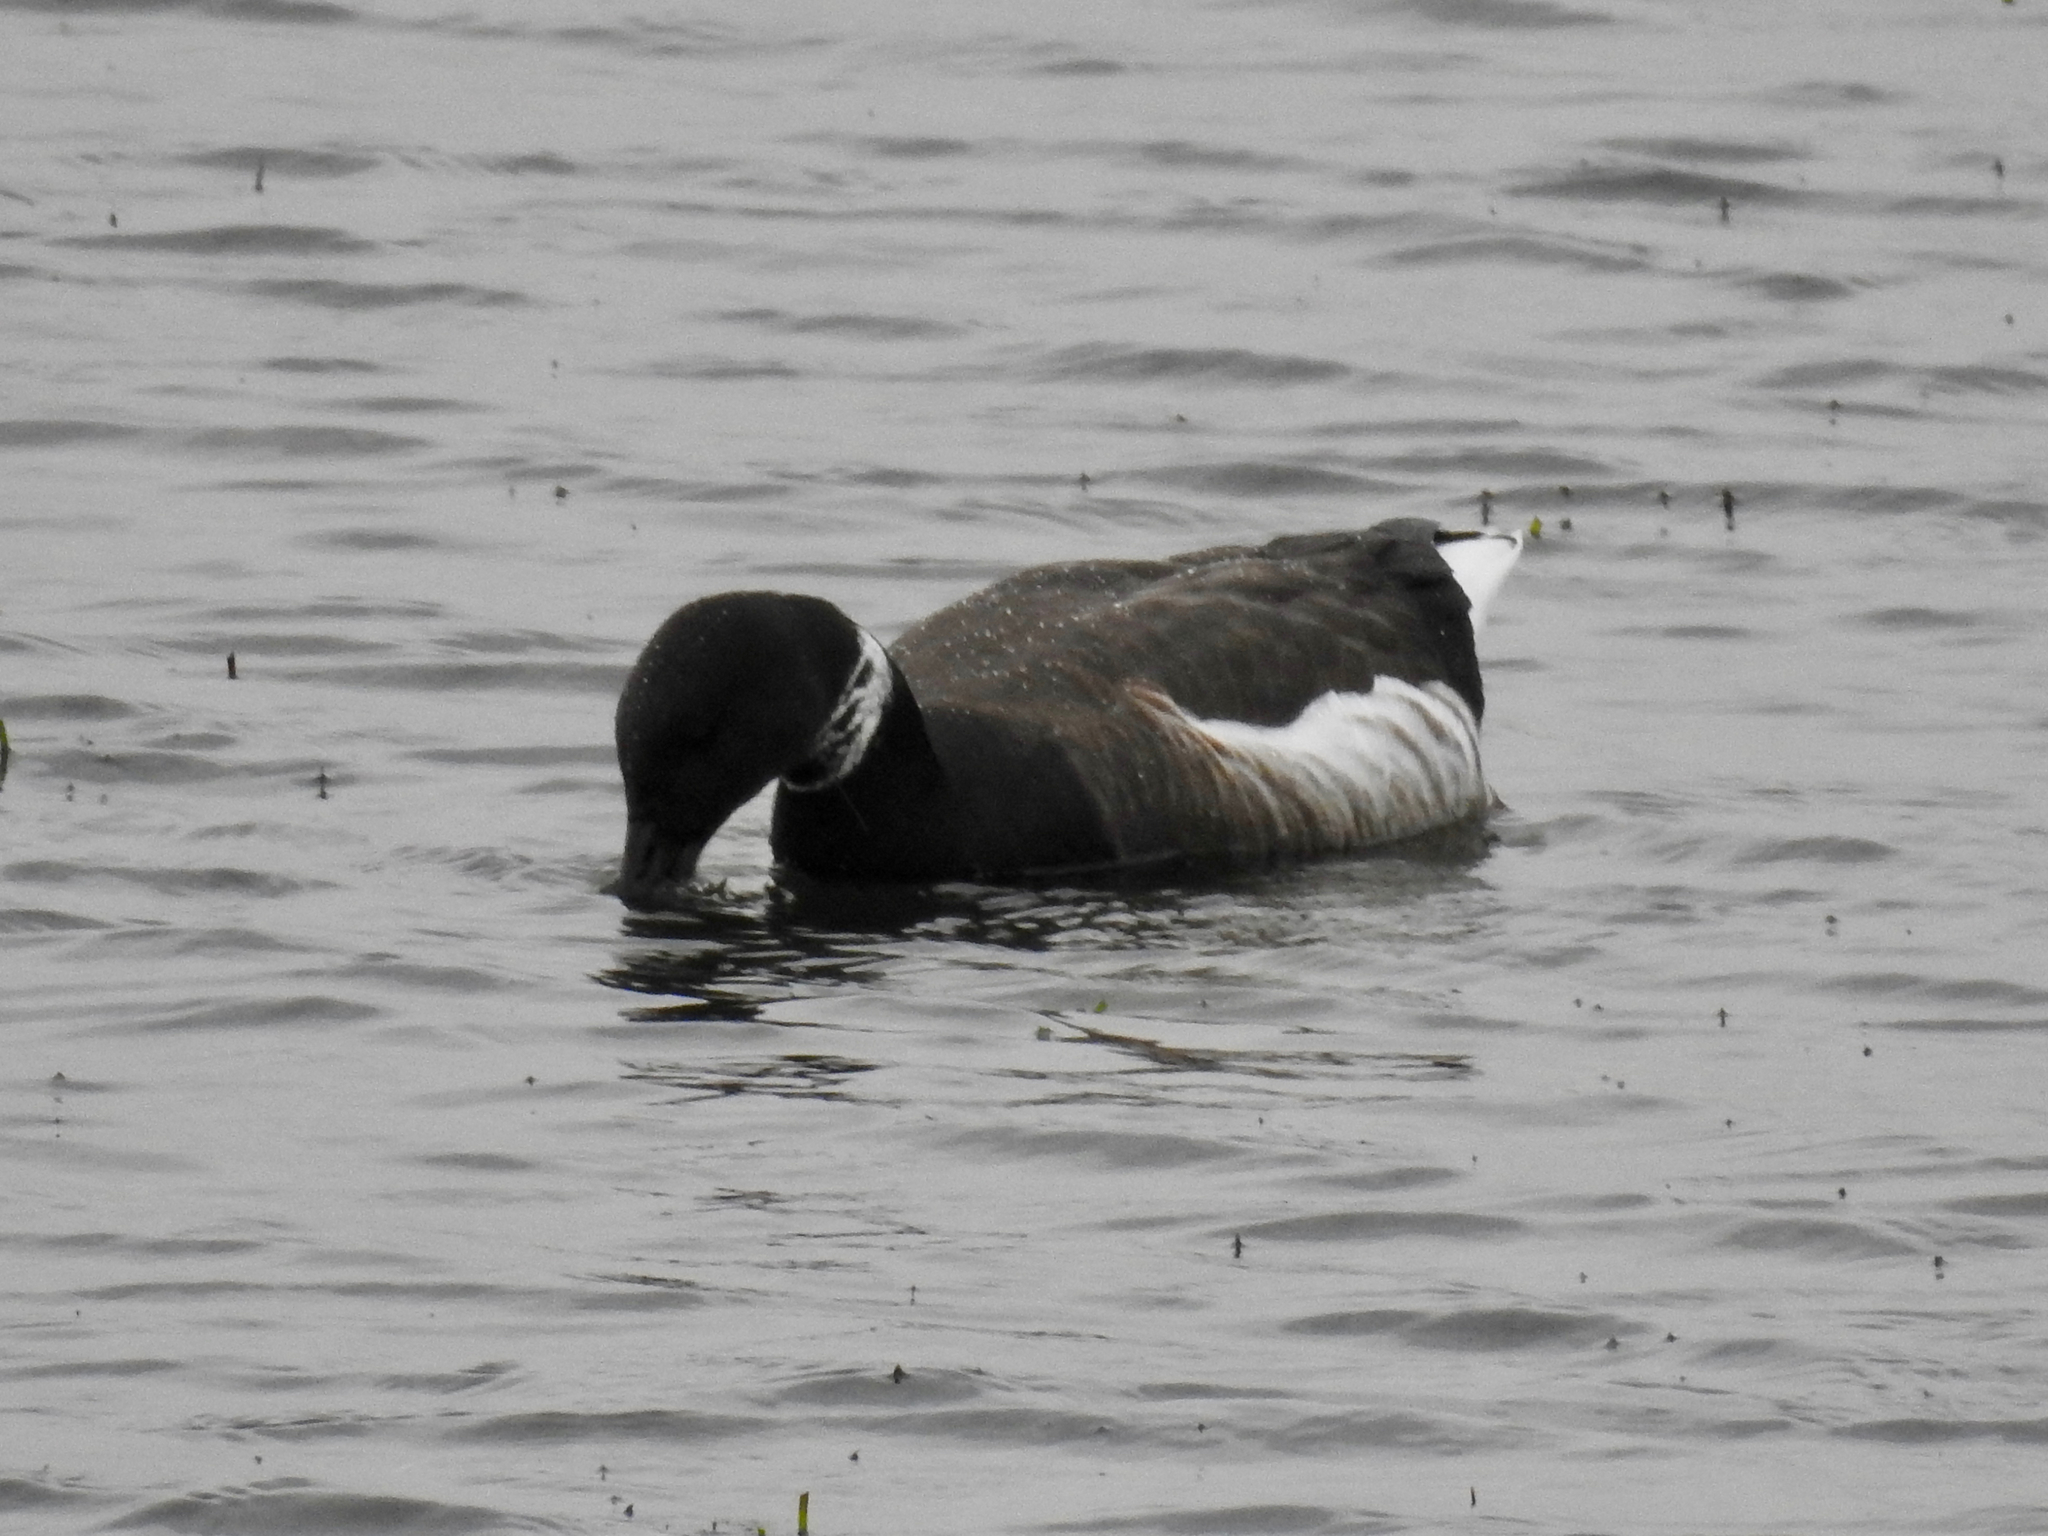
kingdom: Animalia
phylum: Chordata
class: Aves
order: Anseriformes
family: Anatidae
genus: Branta
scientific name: Branta bernicla
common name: Brant goose
